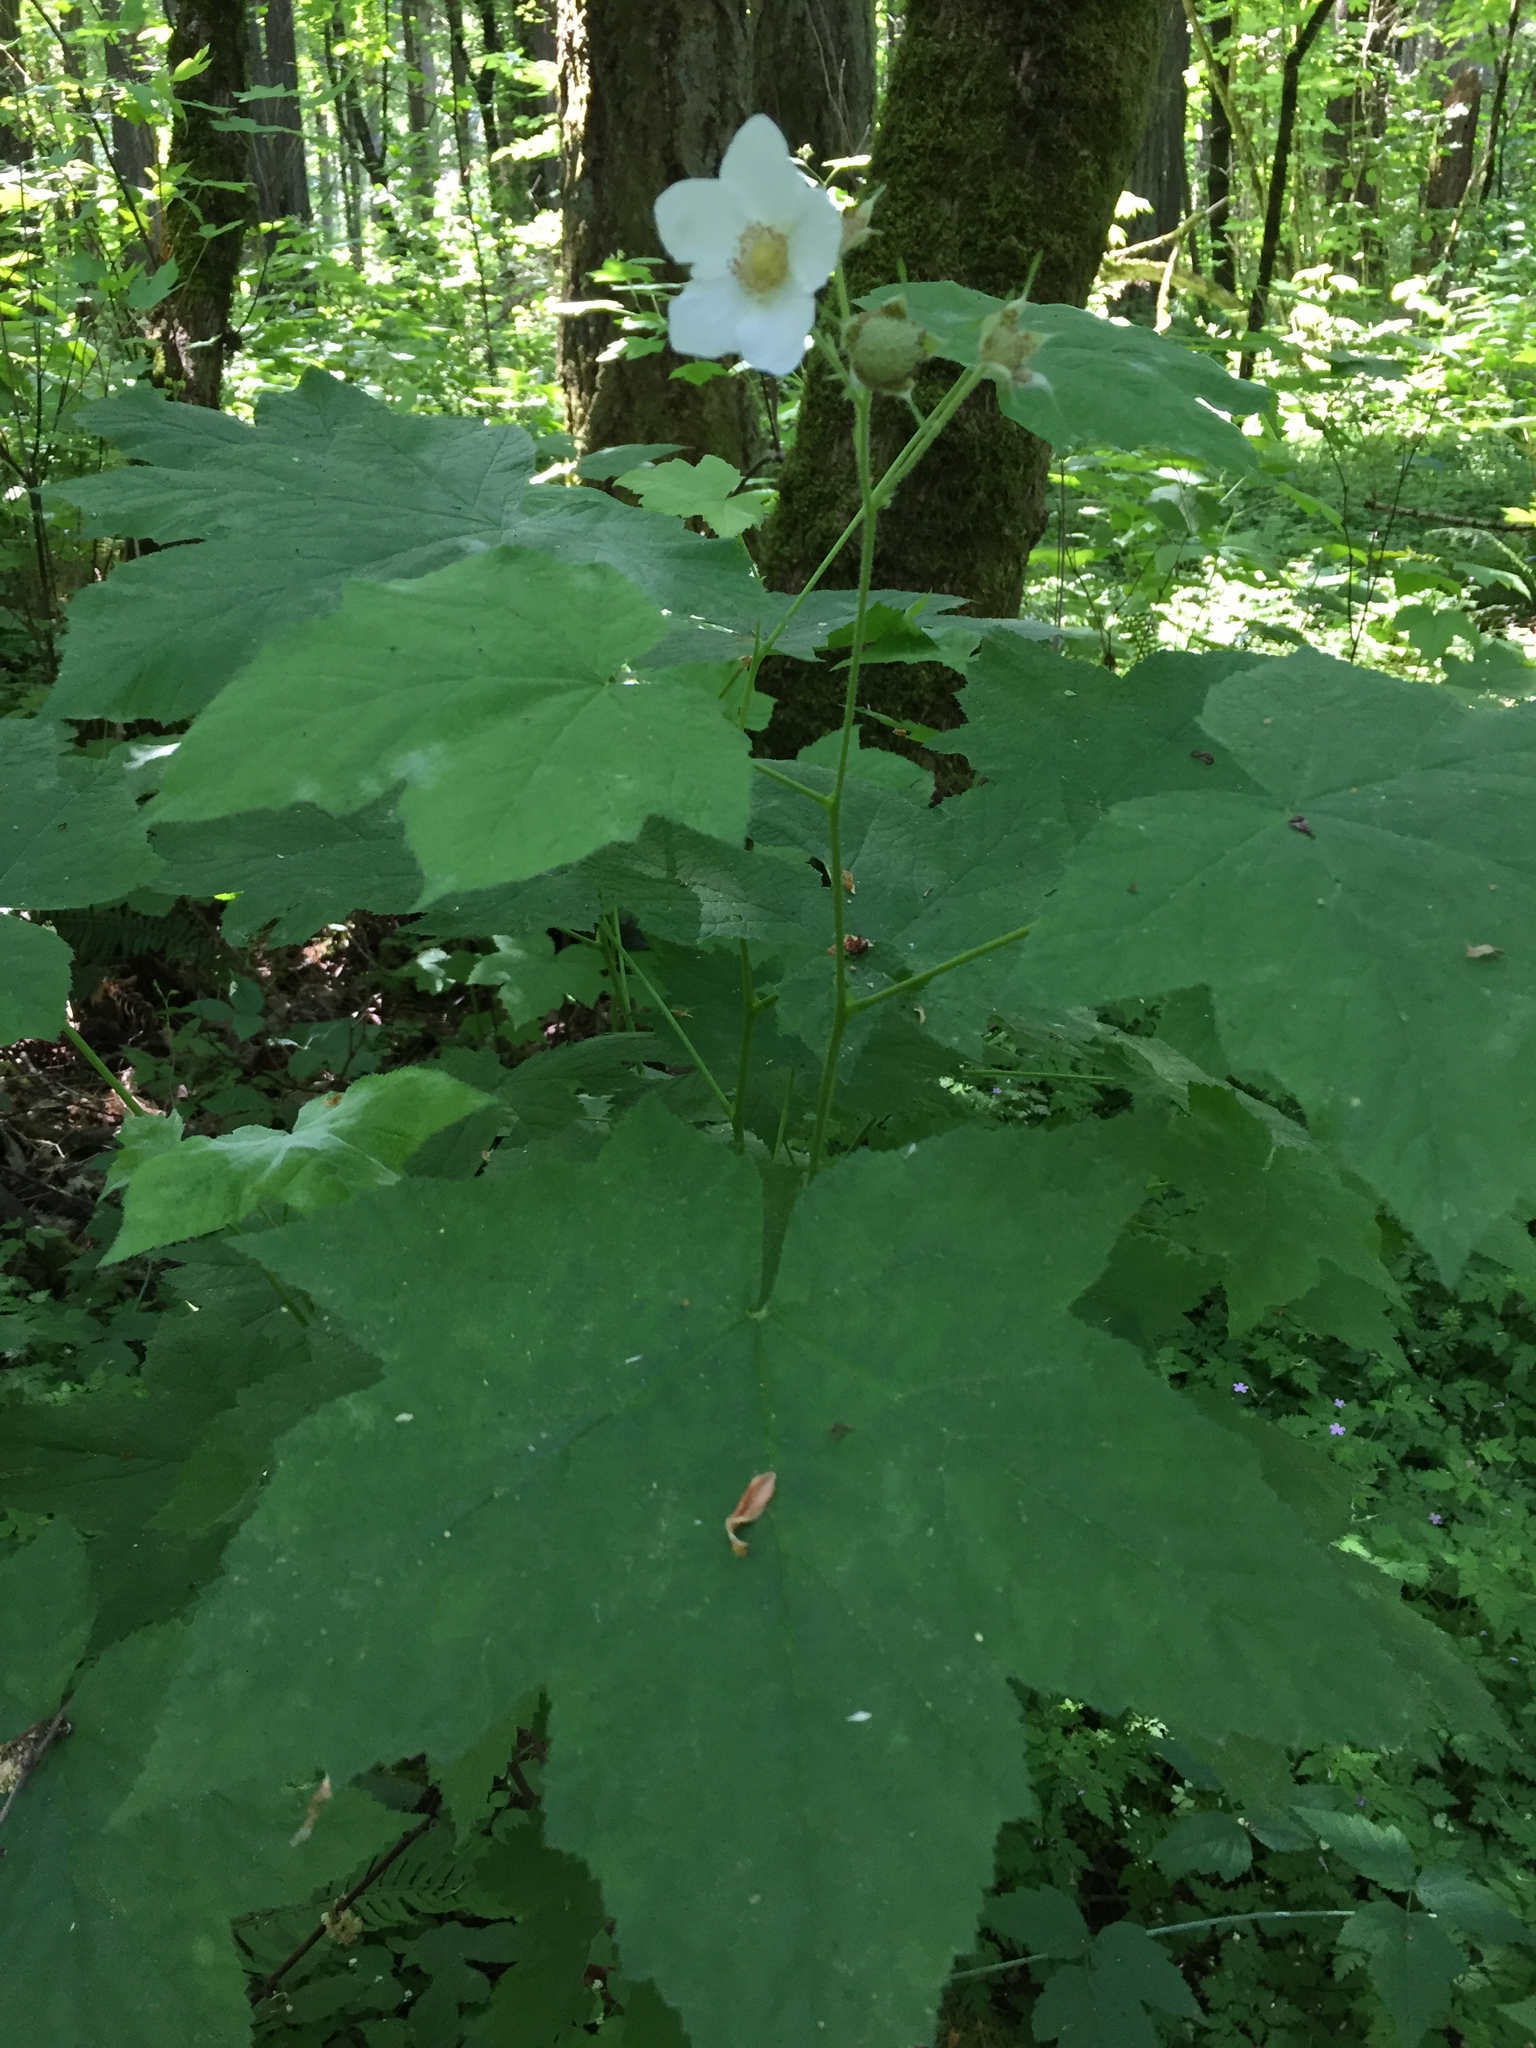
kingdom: Plantae
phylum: Tracheophyta
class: Magnoliopsida
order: Rosales
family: Rosaceae
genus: Rubus
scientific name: Rubus parviflorus
